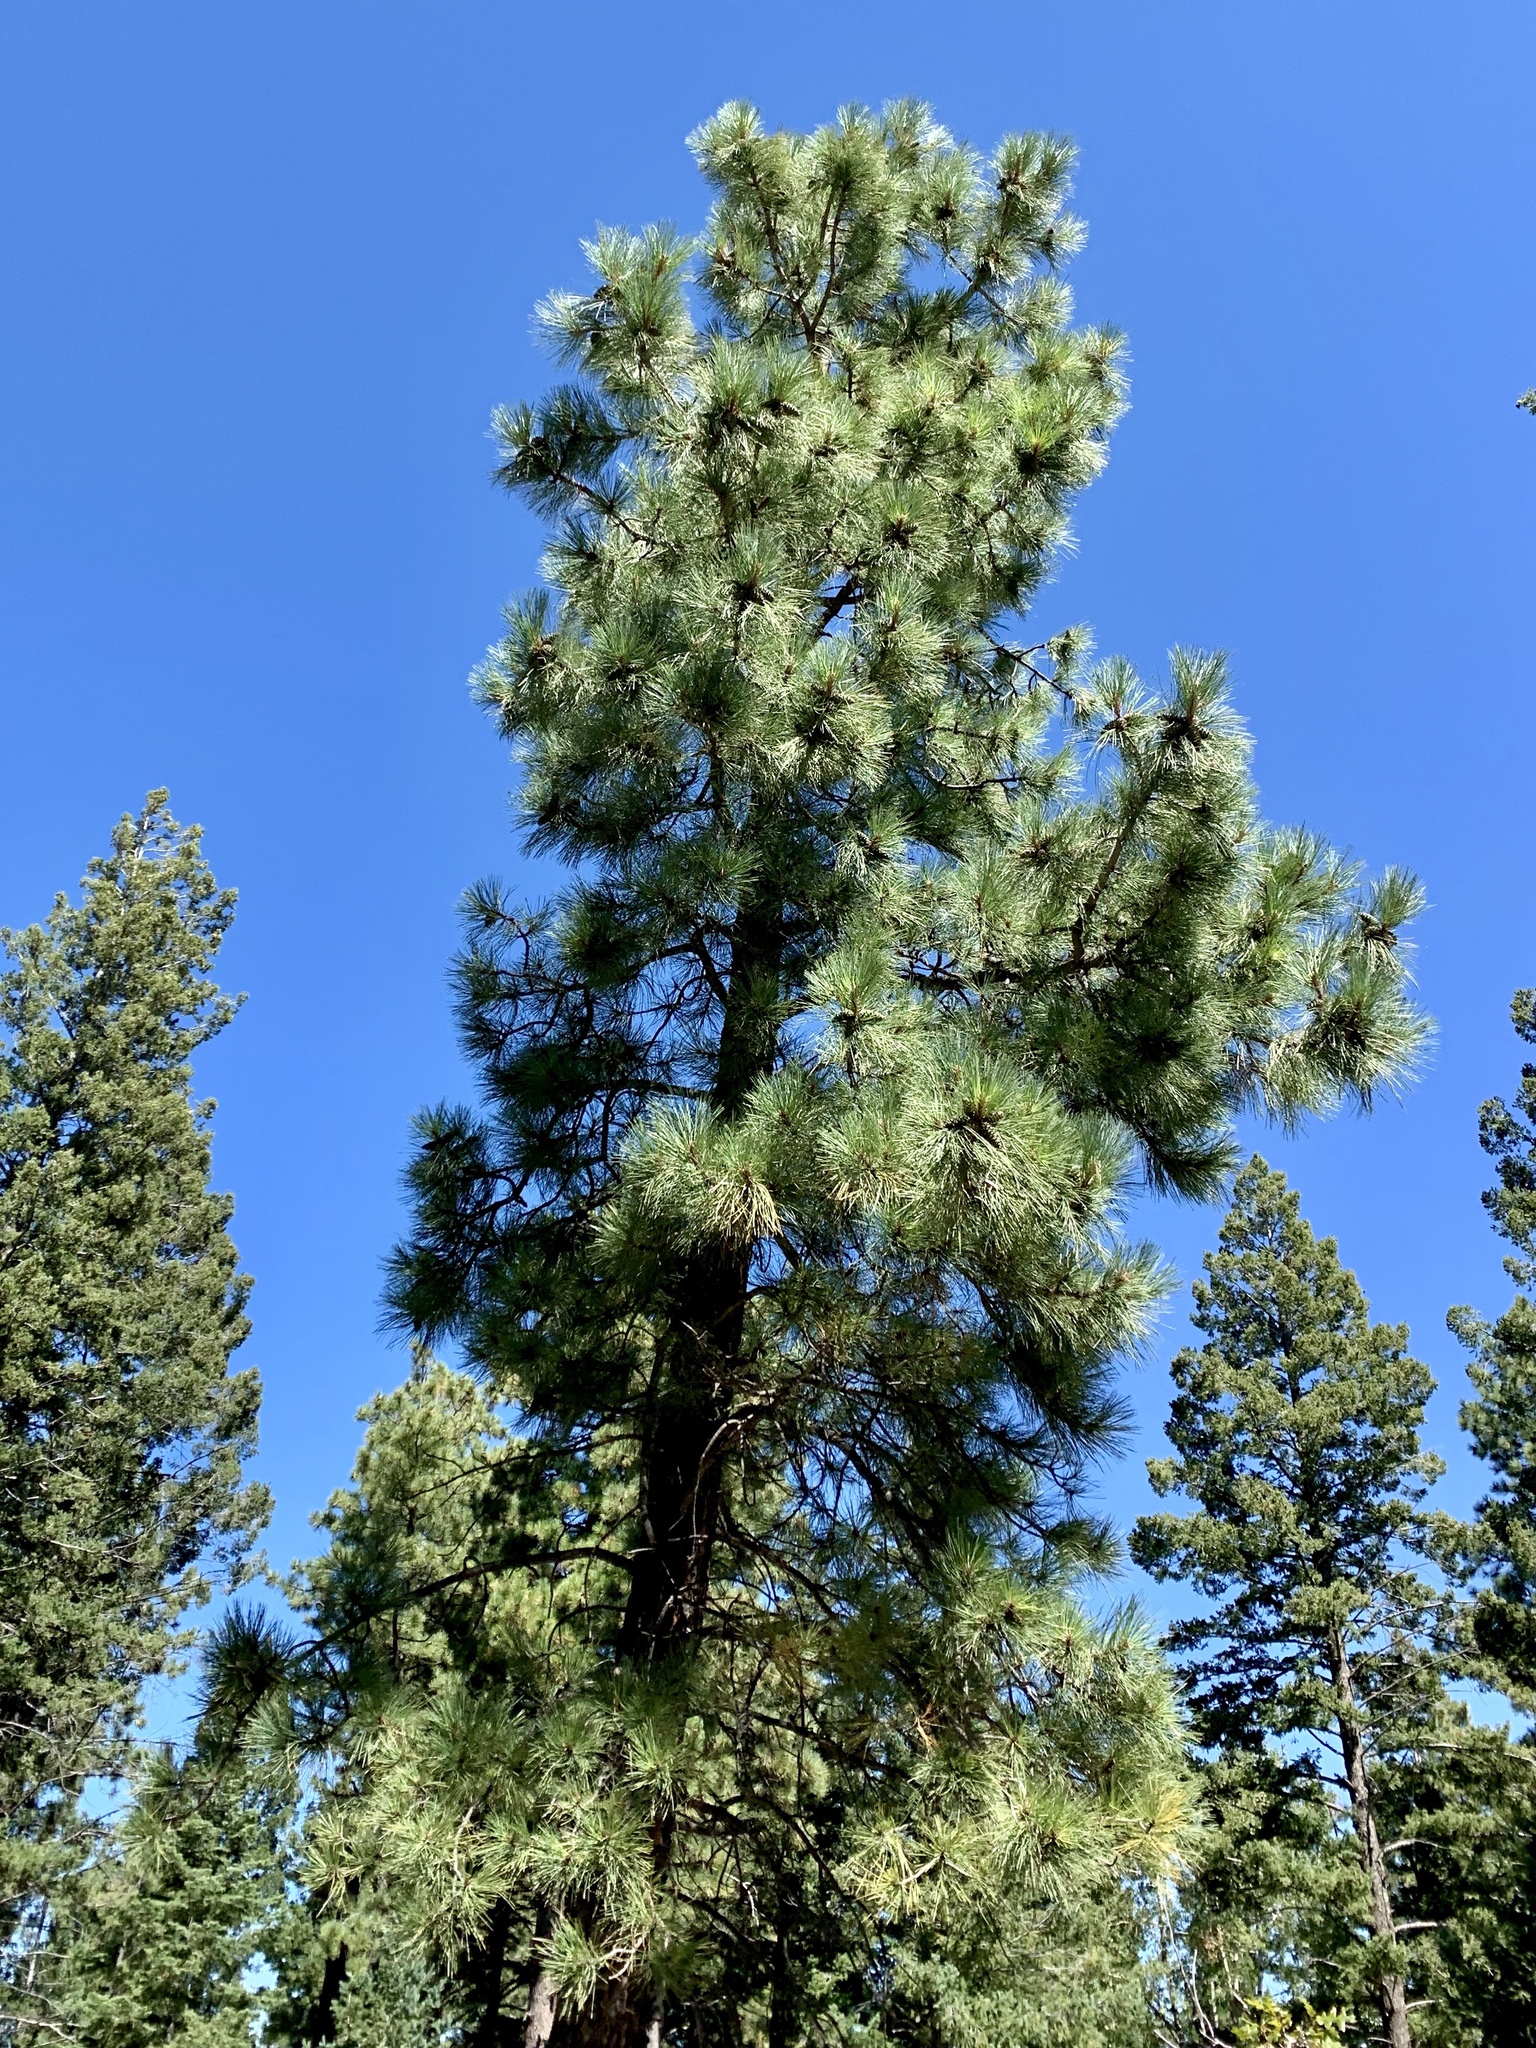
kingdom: Plantae
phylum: Tracheophyta
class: Pinopsida
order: Pinales
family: Pinaceae
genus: Pinus
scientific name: Pinus ponderosa
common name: Western yellow-pine
